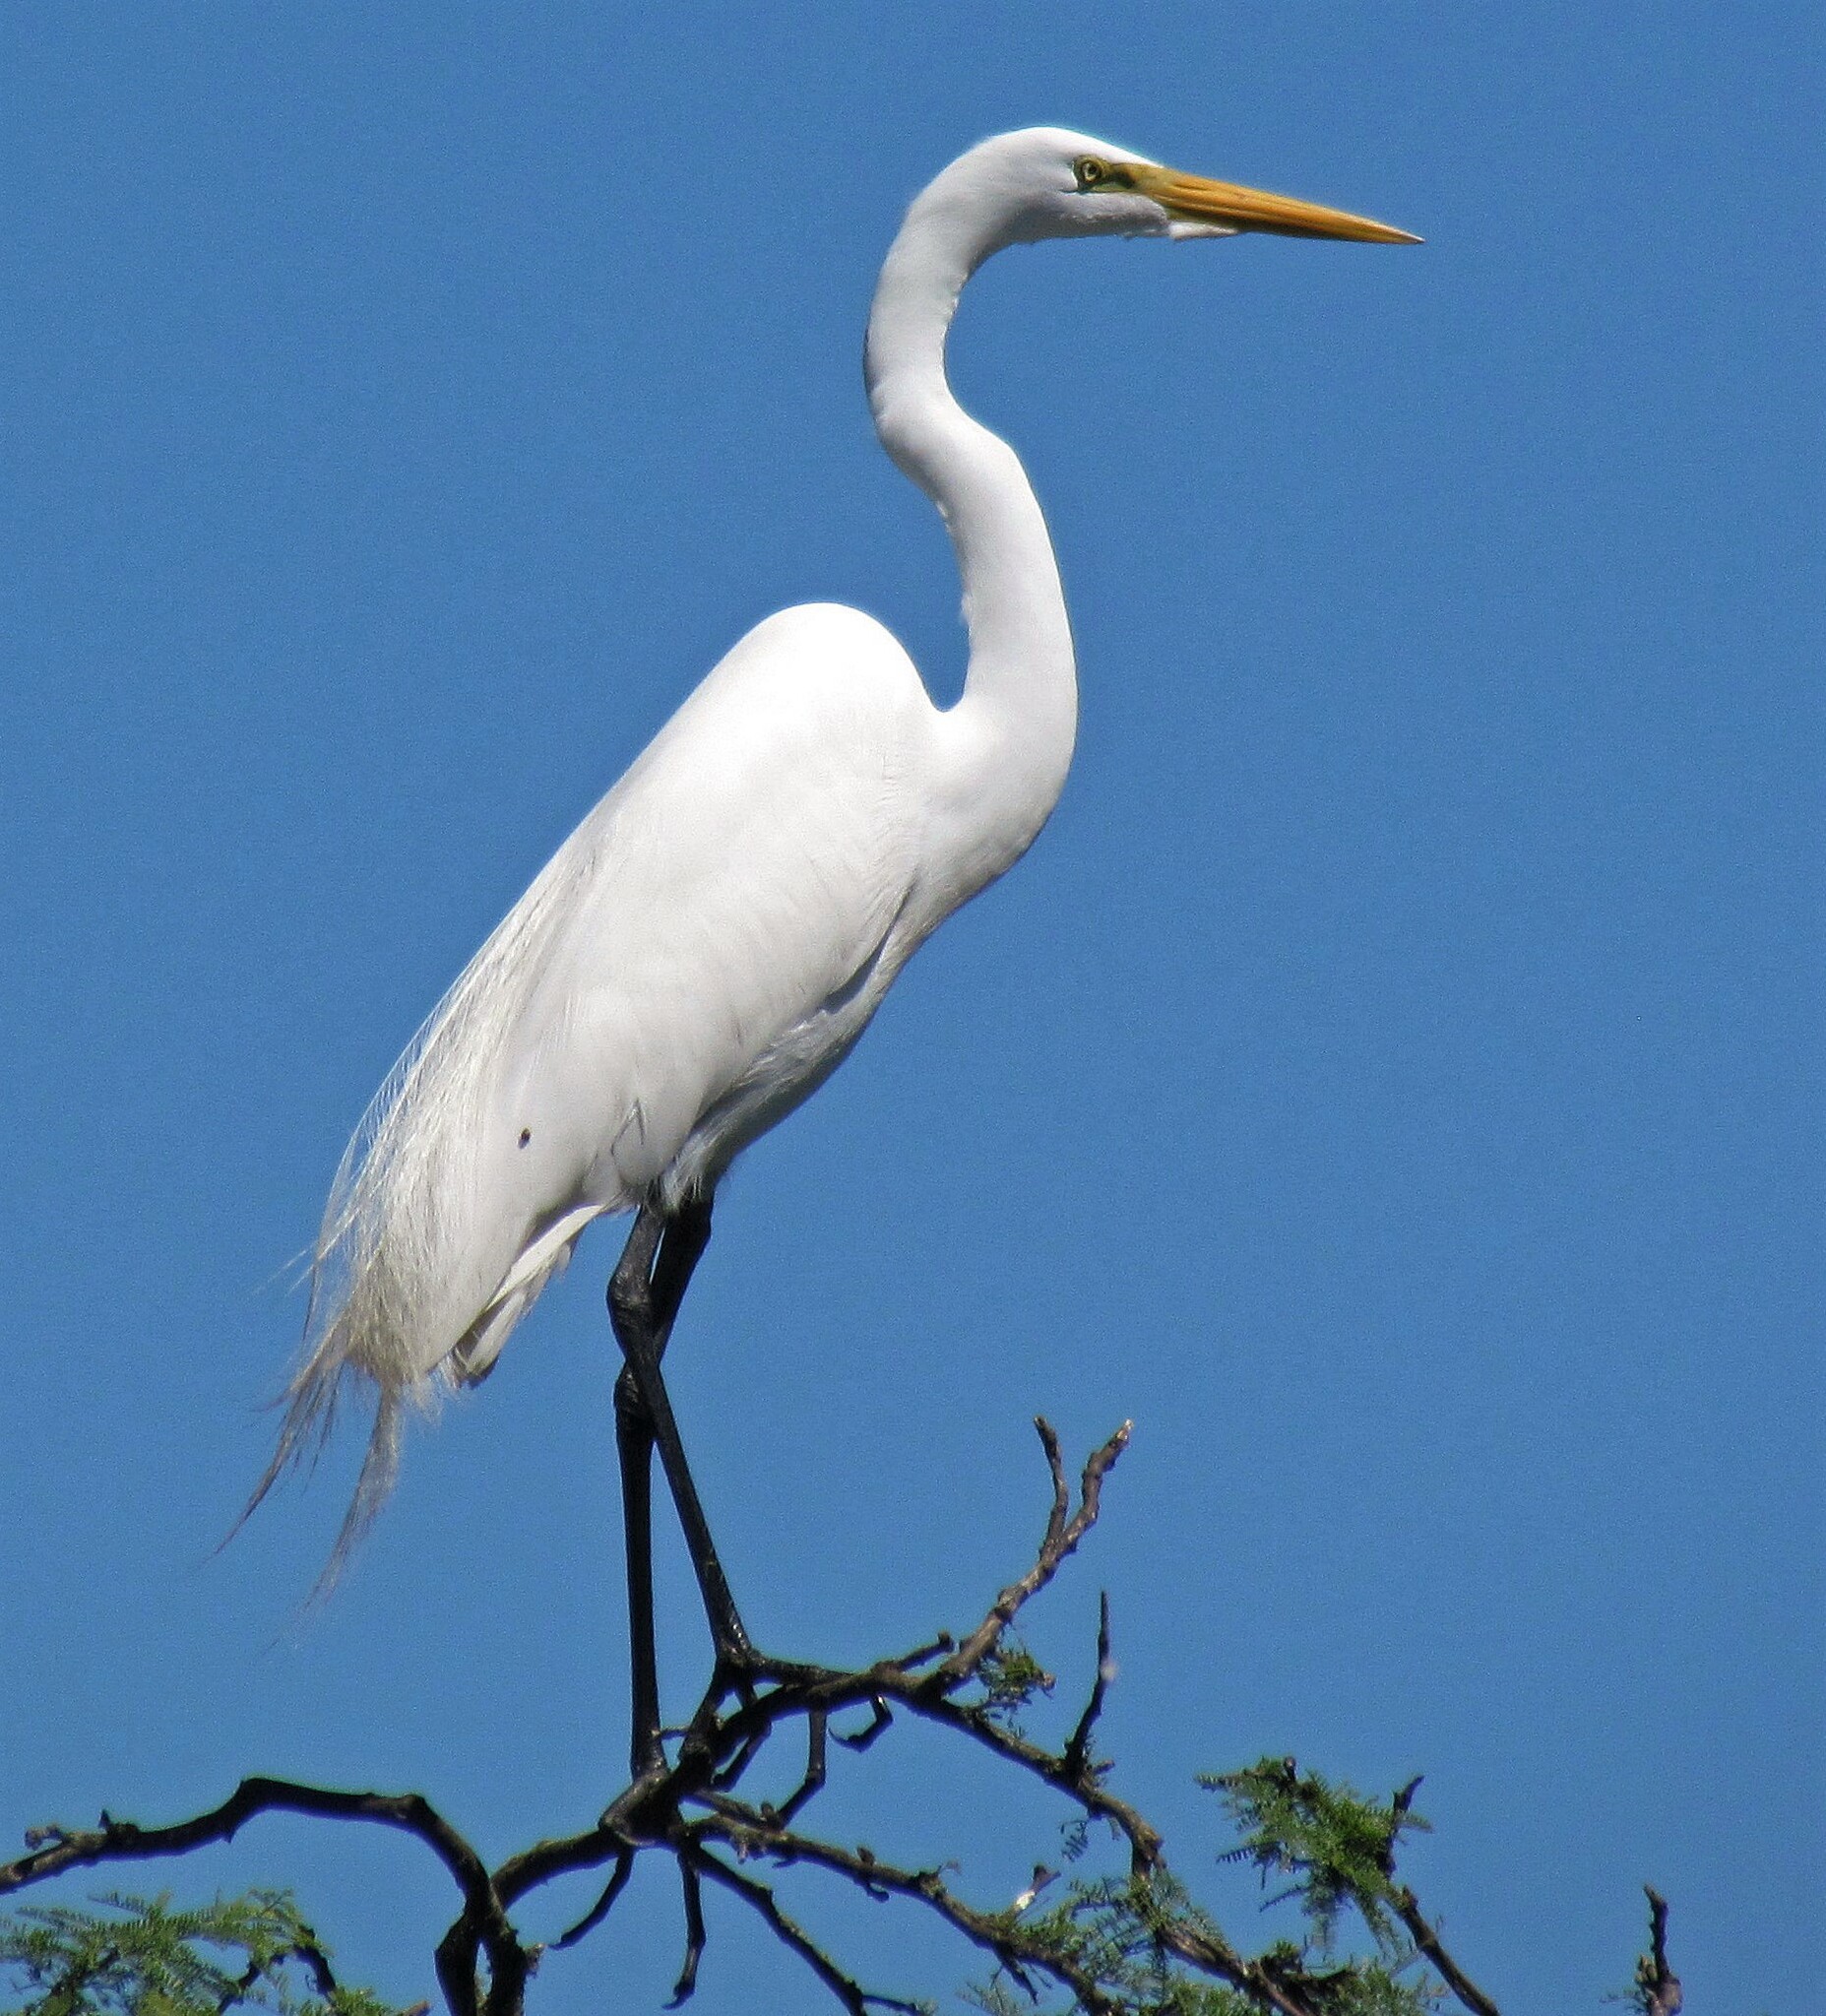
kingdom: Animalia
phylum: Chordata
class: Aves
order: Pelecaniformes
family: Ardeidae
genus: Ardea
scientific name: Ardea alba
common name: Great egret
